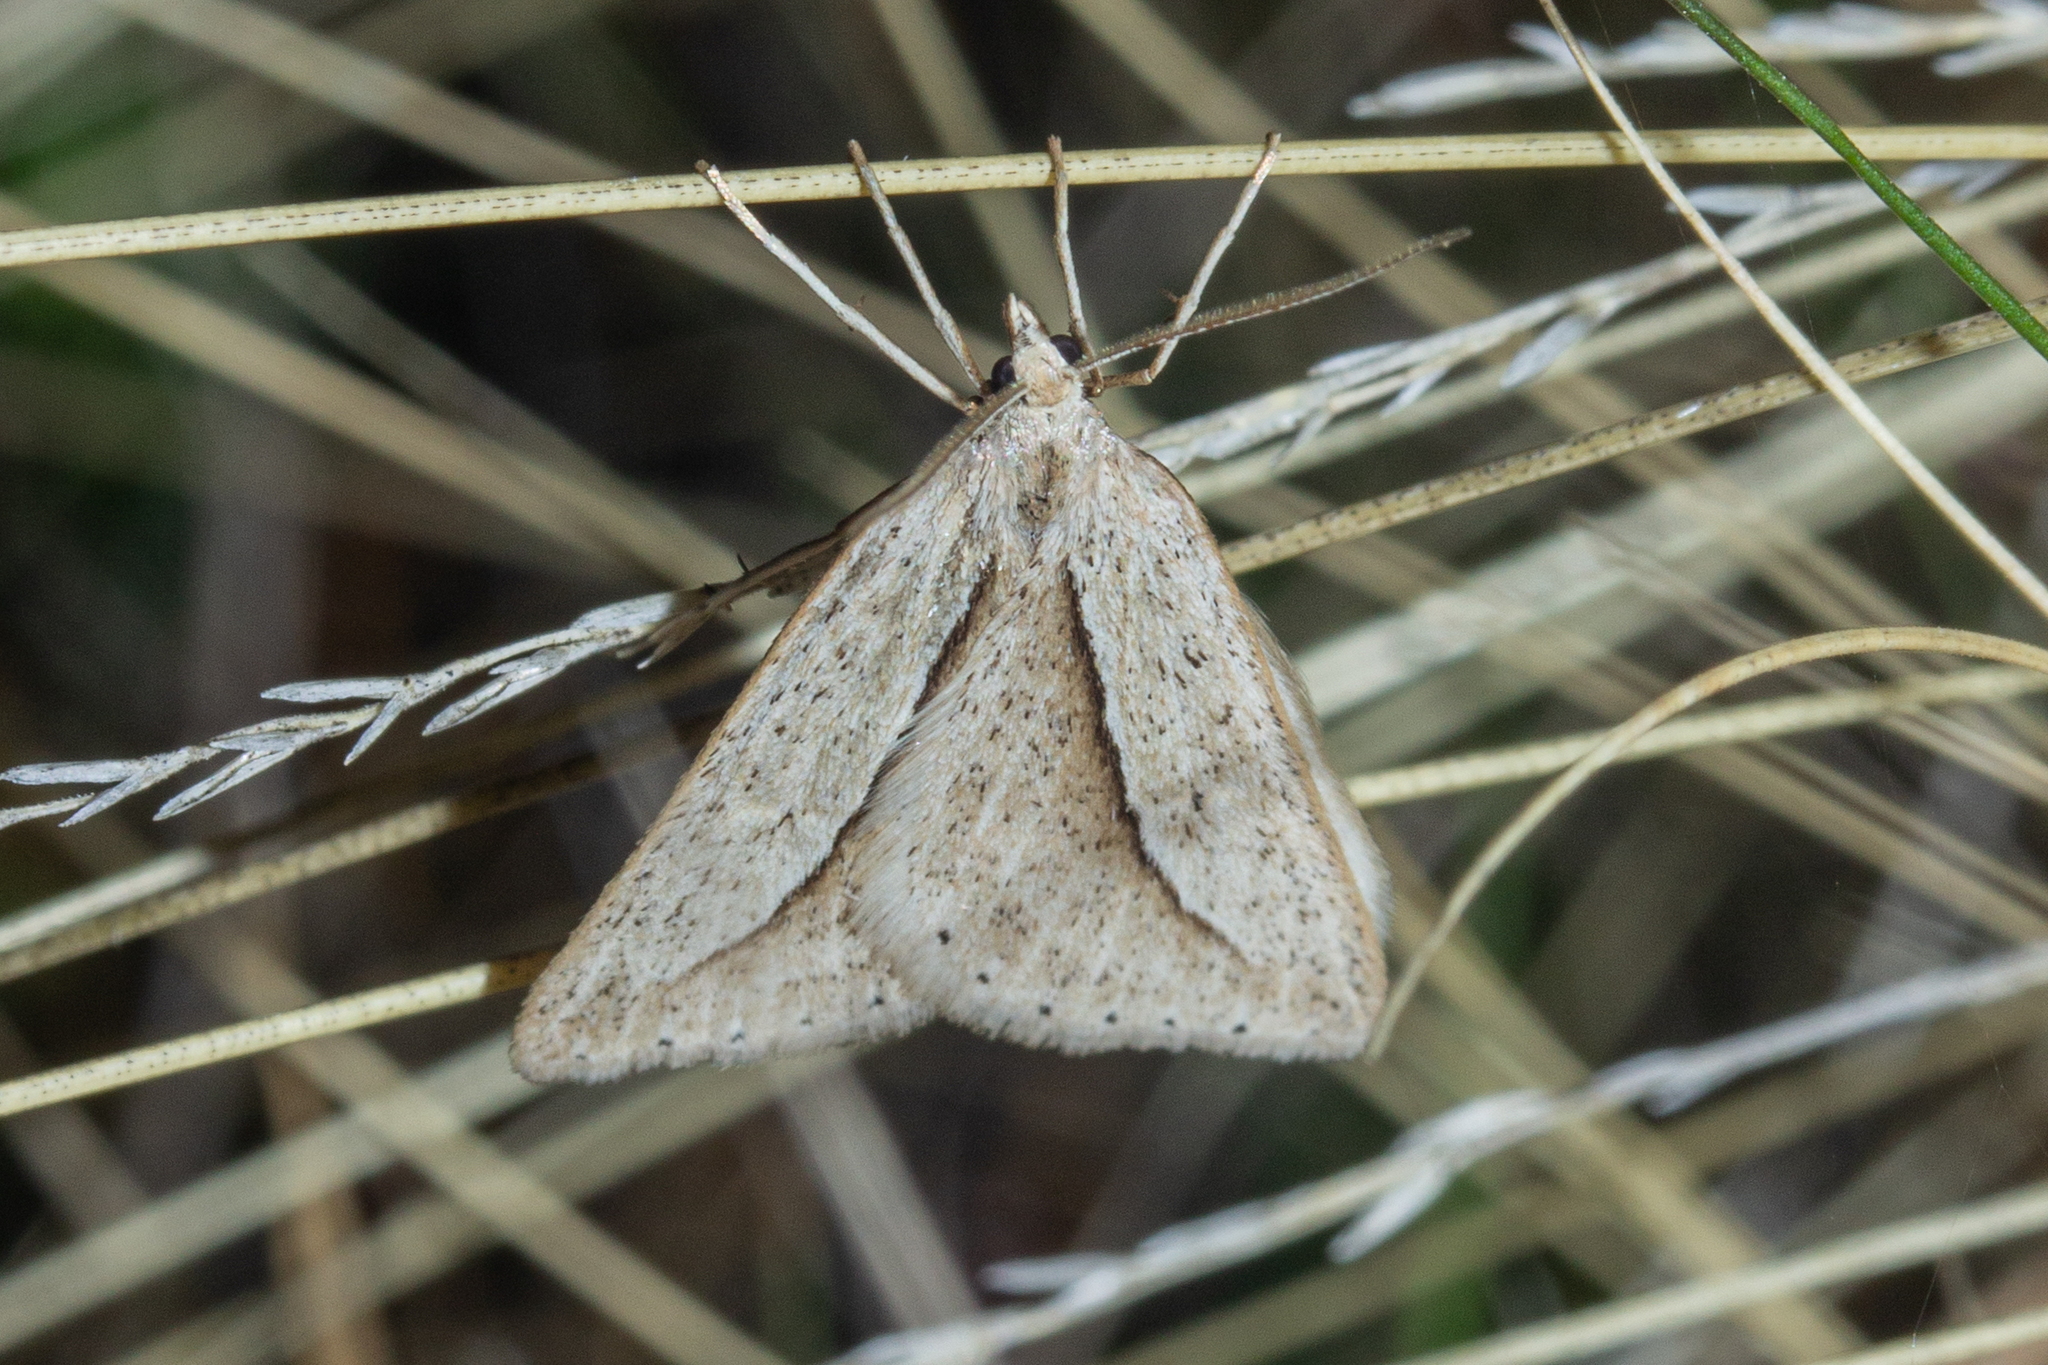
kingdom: Animalia
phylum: Arthropoda
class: Insecta
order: Lepidoptera
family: Geometridae
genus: Theoxena
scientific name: Theoxena scissaria
